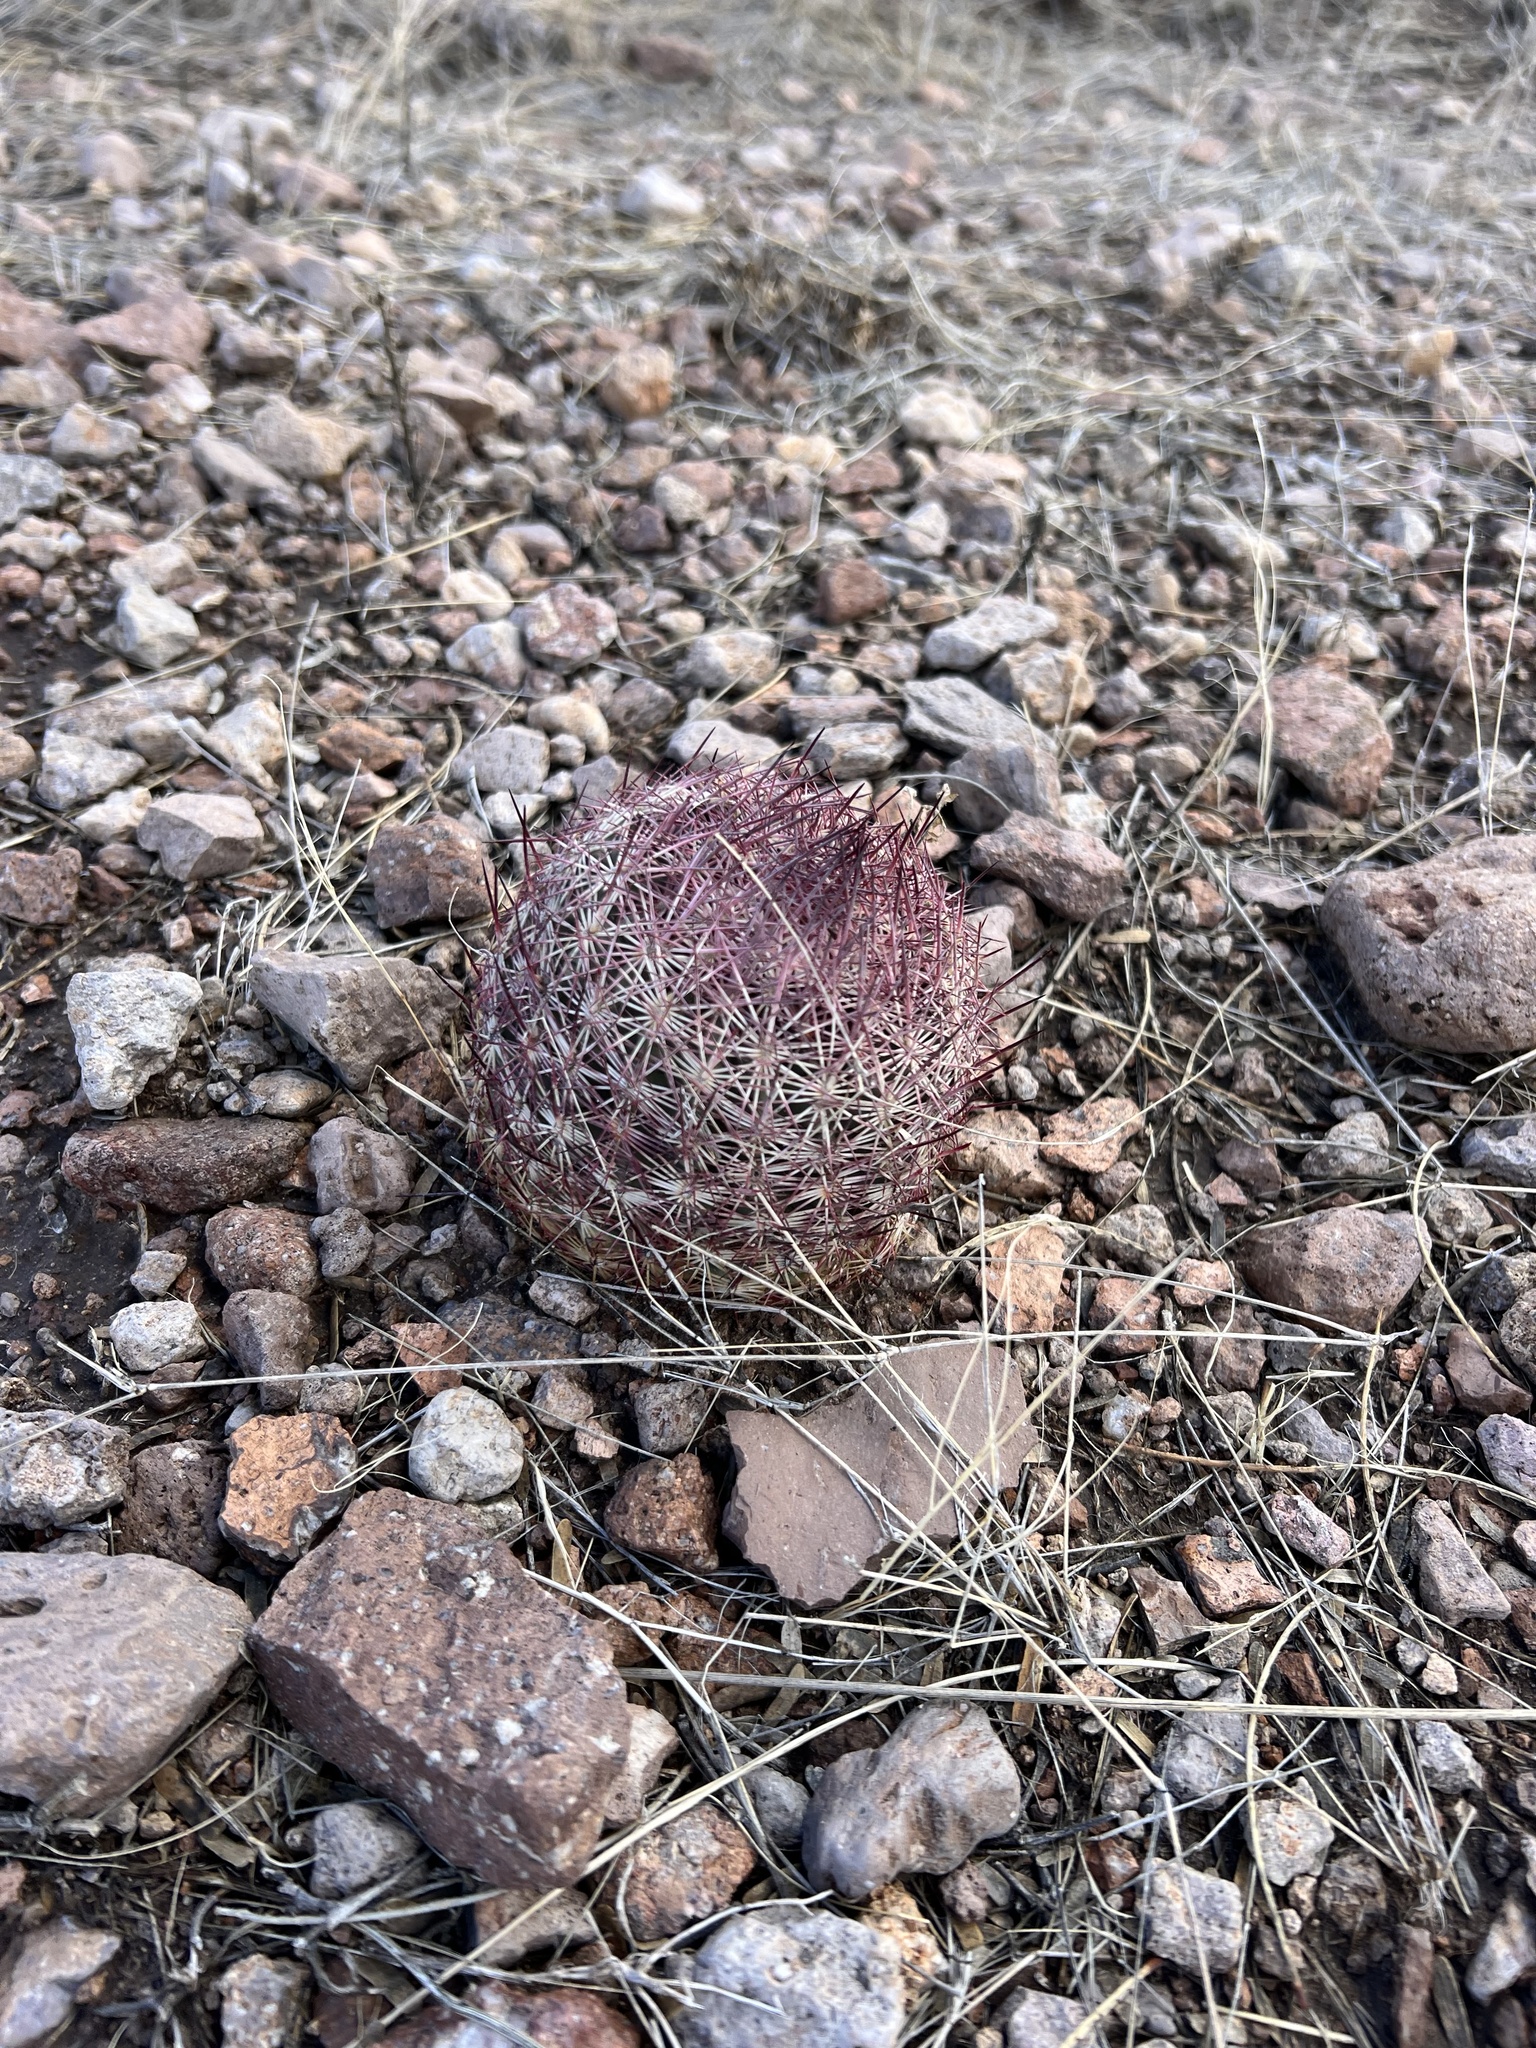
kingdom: Plantae
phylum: Tracheophyta
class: Magnoliopsida
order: Caryophyllales
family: Cactaceae
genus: Sclerocactus
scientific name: Sclerocactus johnsonii
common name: Eight-spine fishhook cactus
